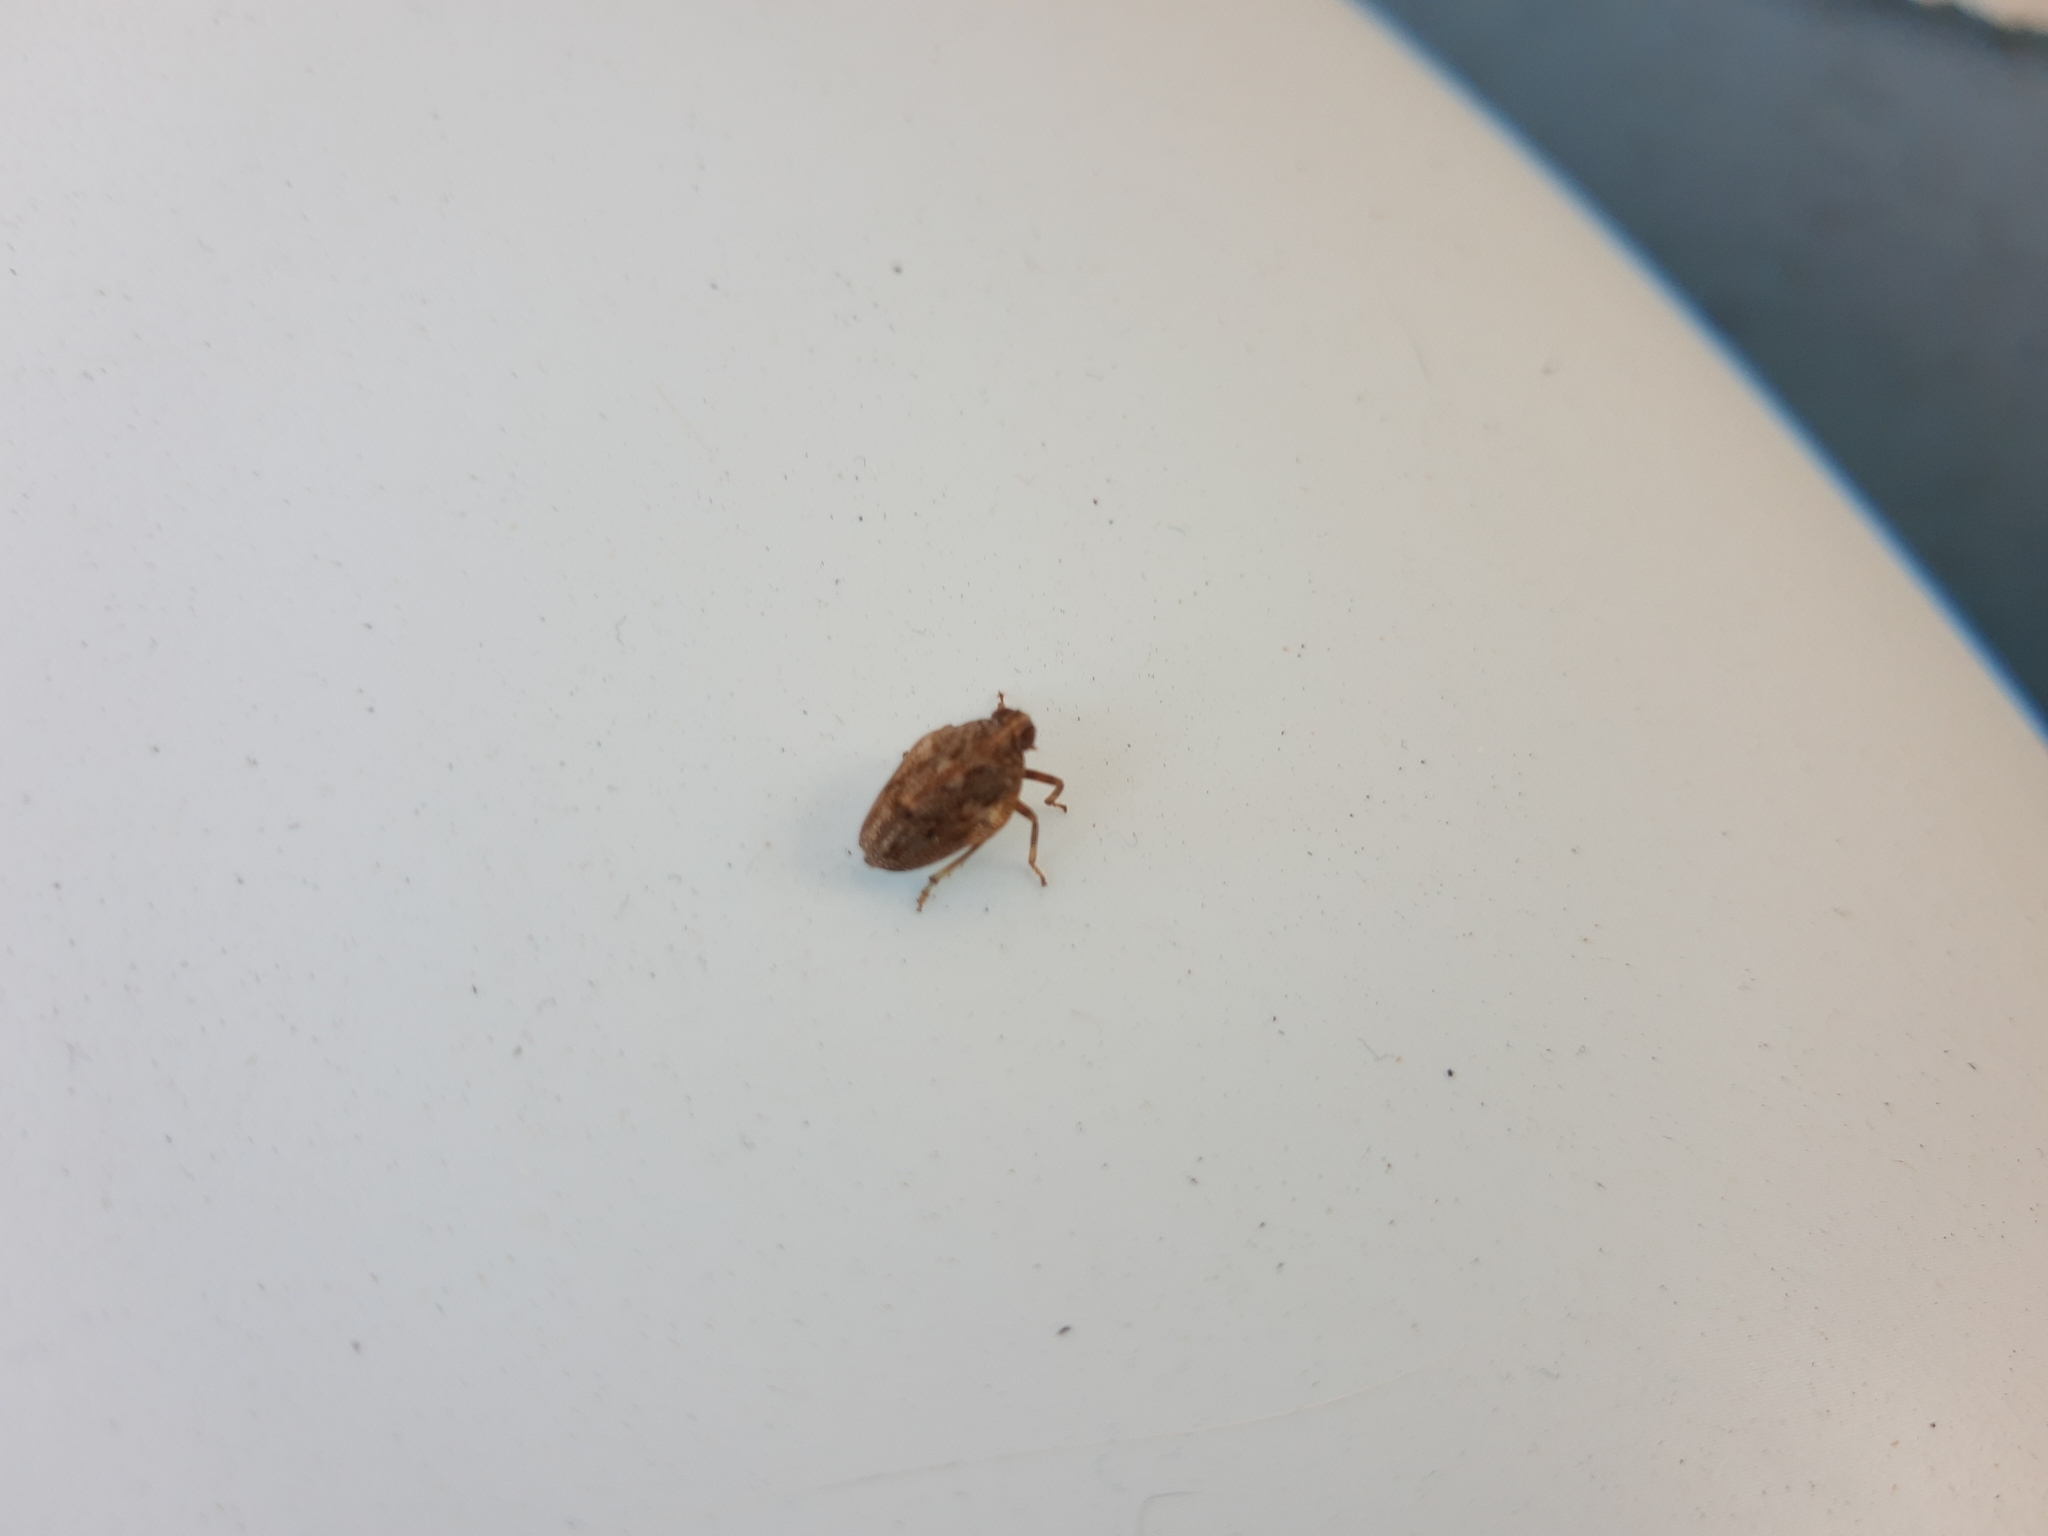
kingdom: Animalia
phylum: Arthropoda
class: Insecta
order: Hemiptera
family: Issidae
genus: Issus
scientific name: Issus coleoptratus
